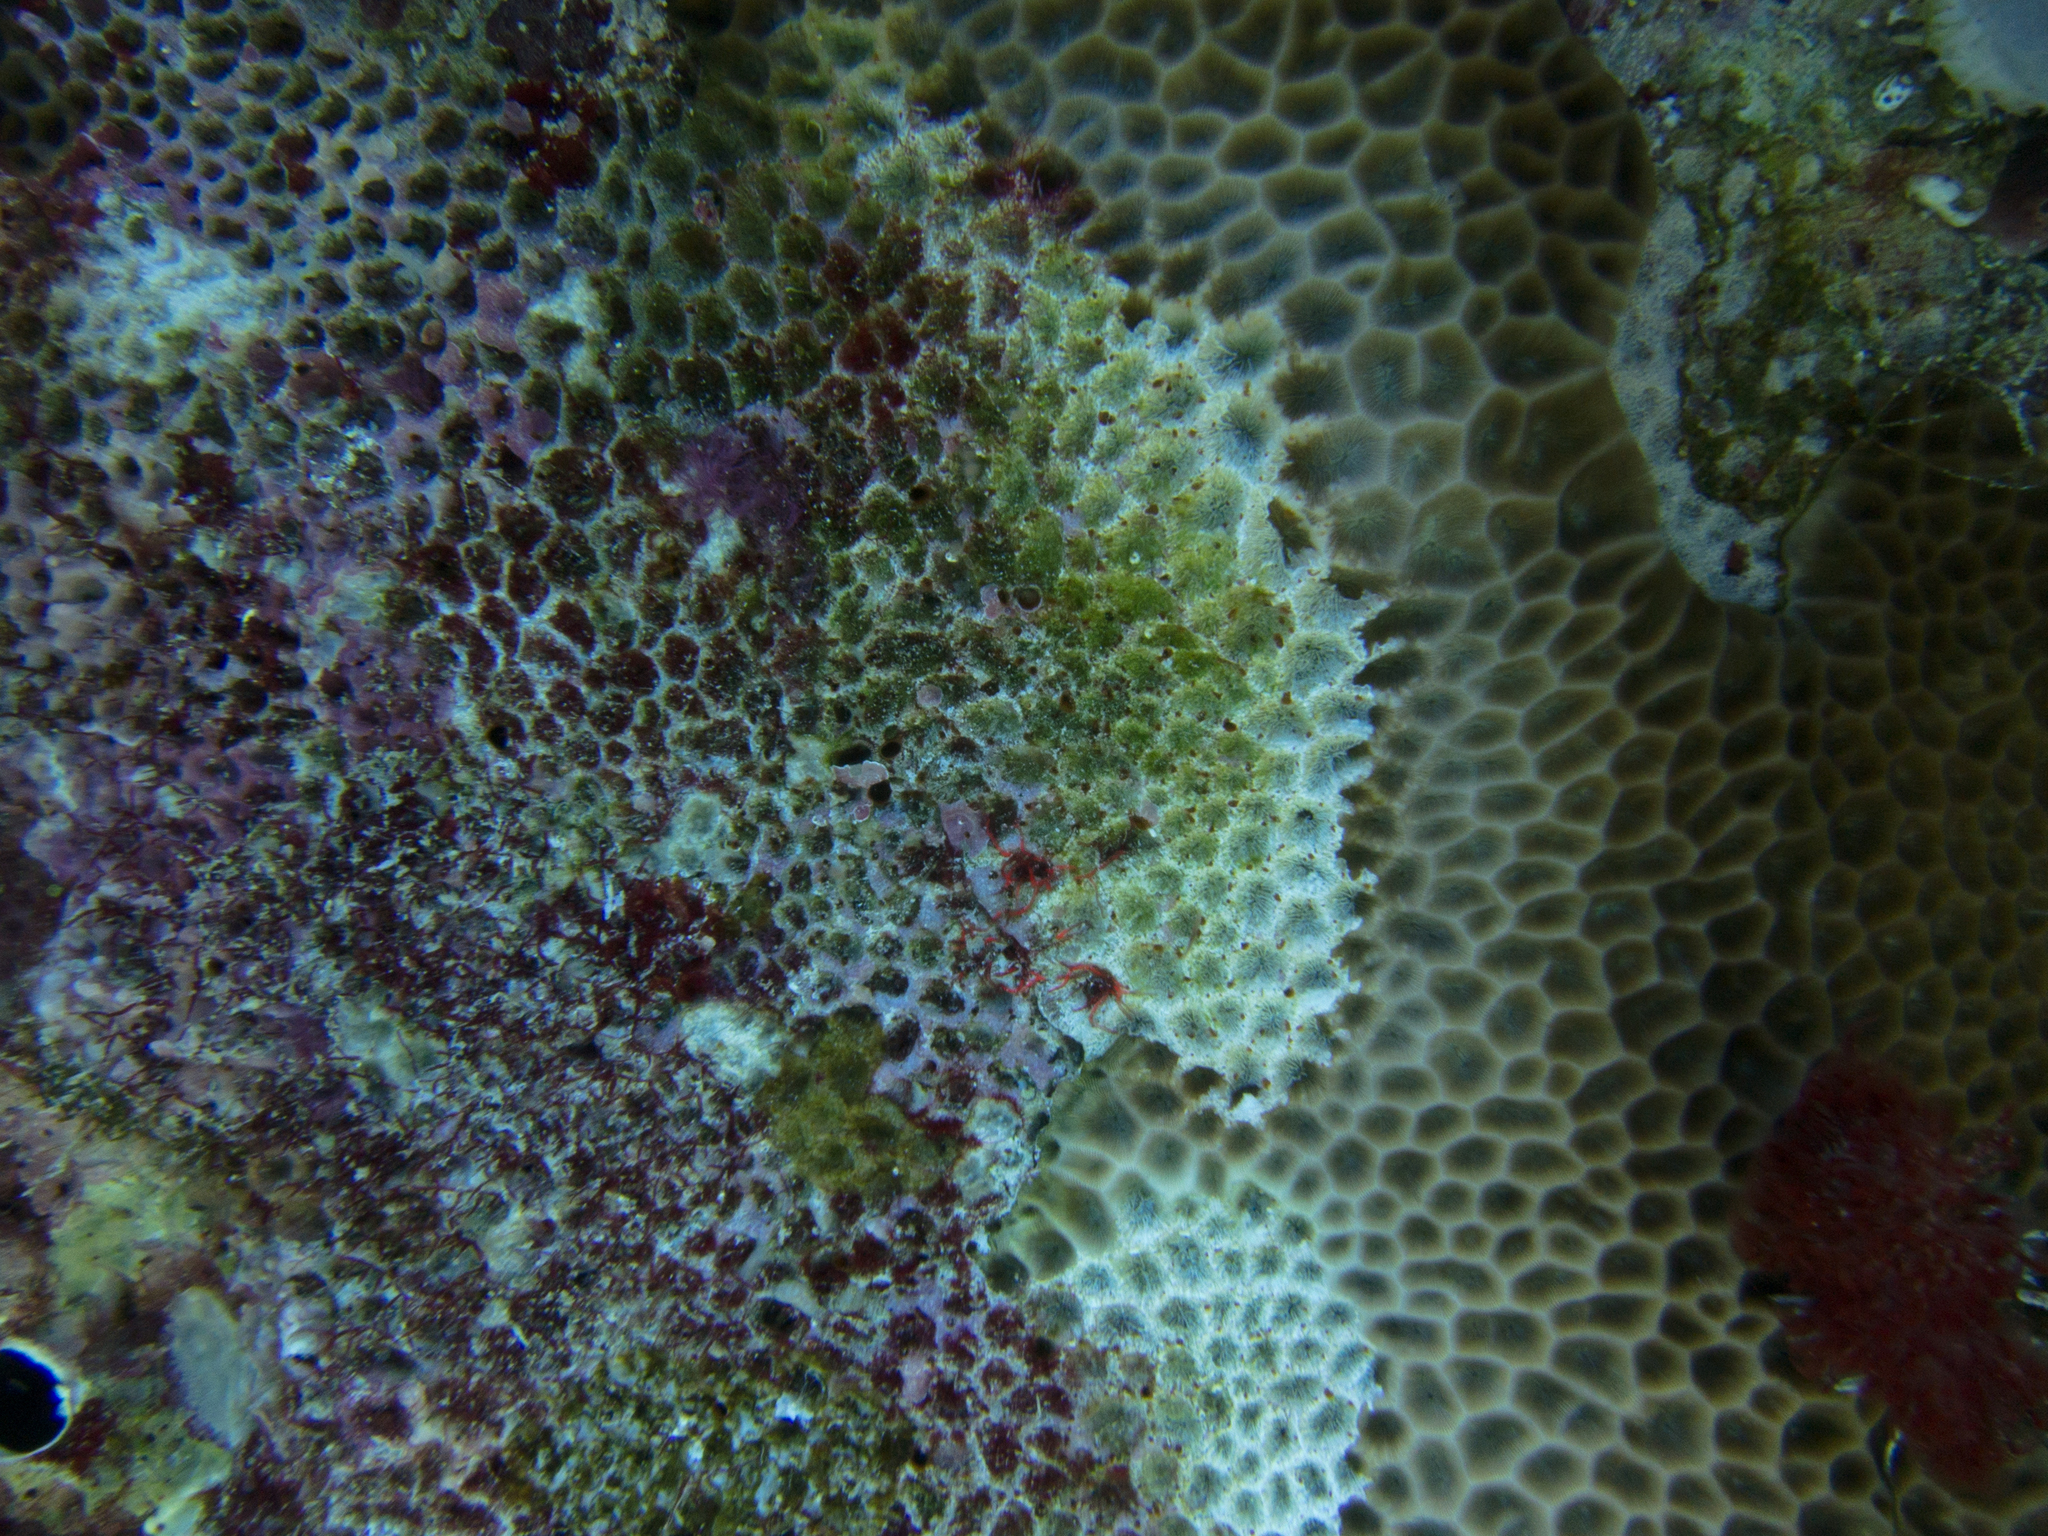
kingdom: Animalia
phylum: Cnidaria
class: Anthozoa
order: Scleractinia
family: Agariciidae
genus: Gardineroseris
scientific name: Gardineroseris planulata
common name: Gardiner's coral
